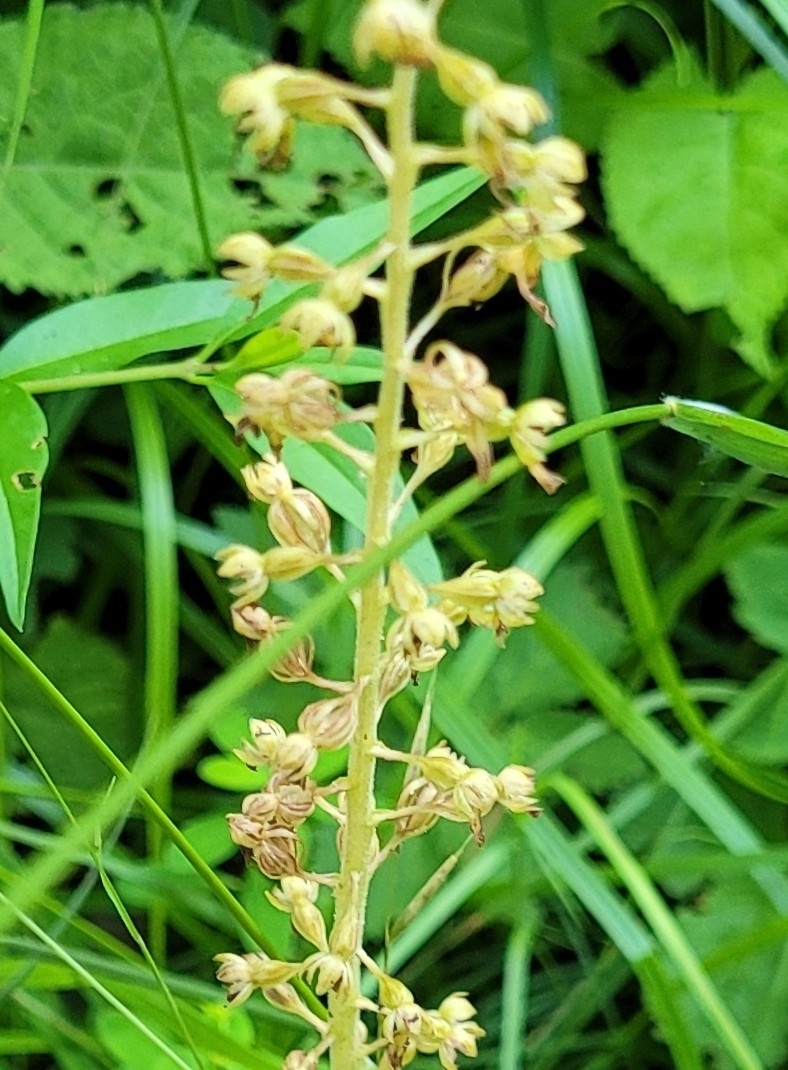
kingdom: Plantae
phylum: Tracheophyta
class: Liliopsida
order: Asparagales
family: Orchidaceae
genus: Neottia
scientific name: Neottia ovata
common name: Common twayblade
